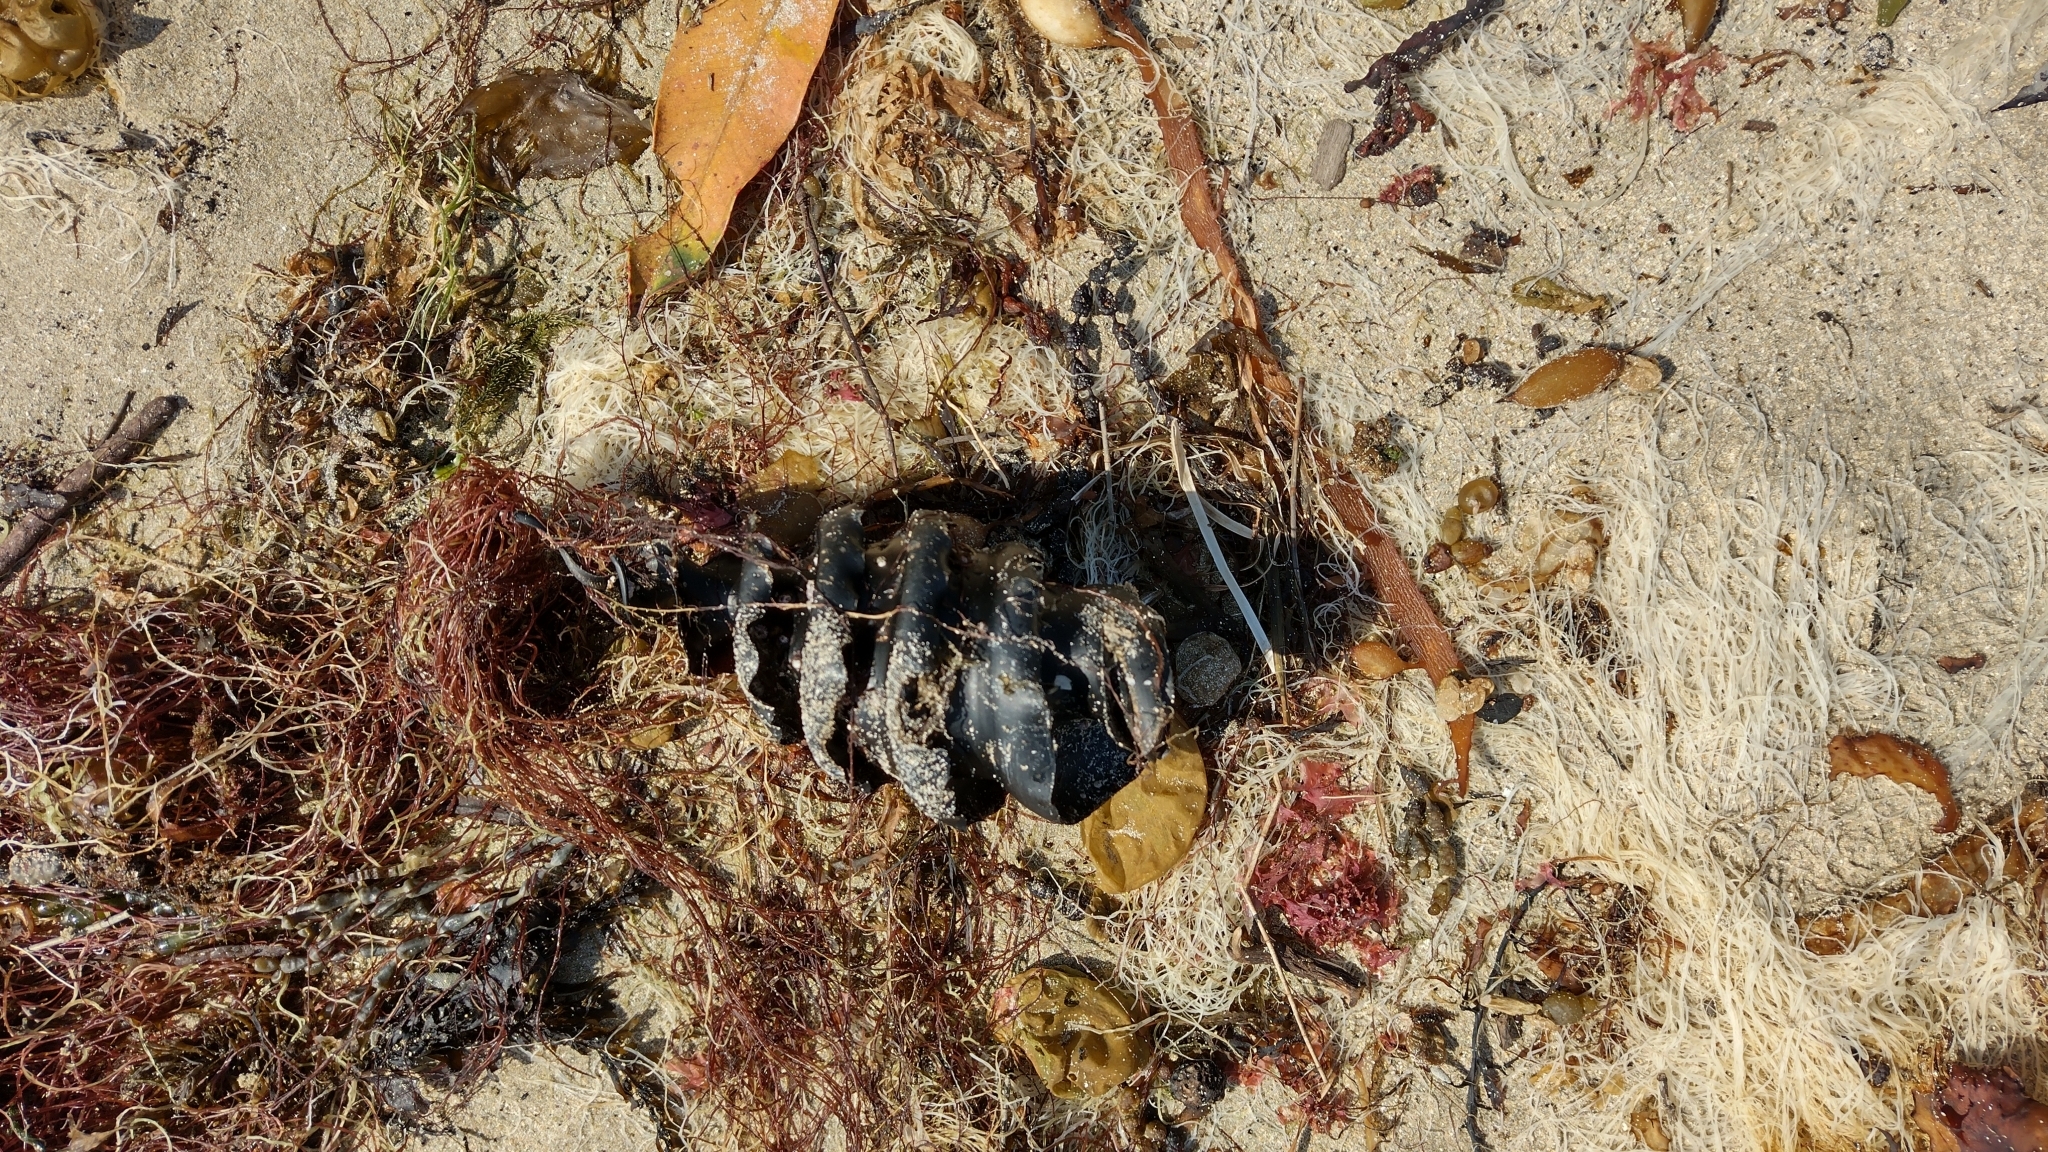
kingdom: Animalia
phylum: Chordata
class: Elasmobranchii
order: Heterodontiformes
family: Heterodontidae
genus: Heterodontus
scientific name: Heterodontus galeatus
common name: Crested bullhead shark
